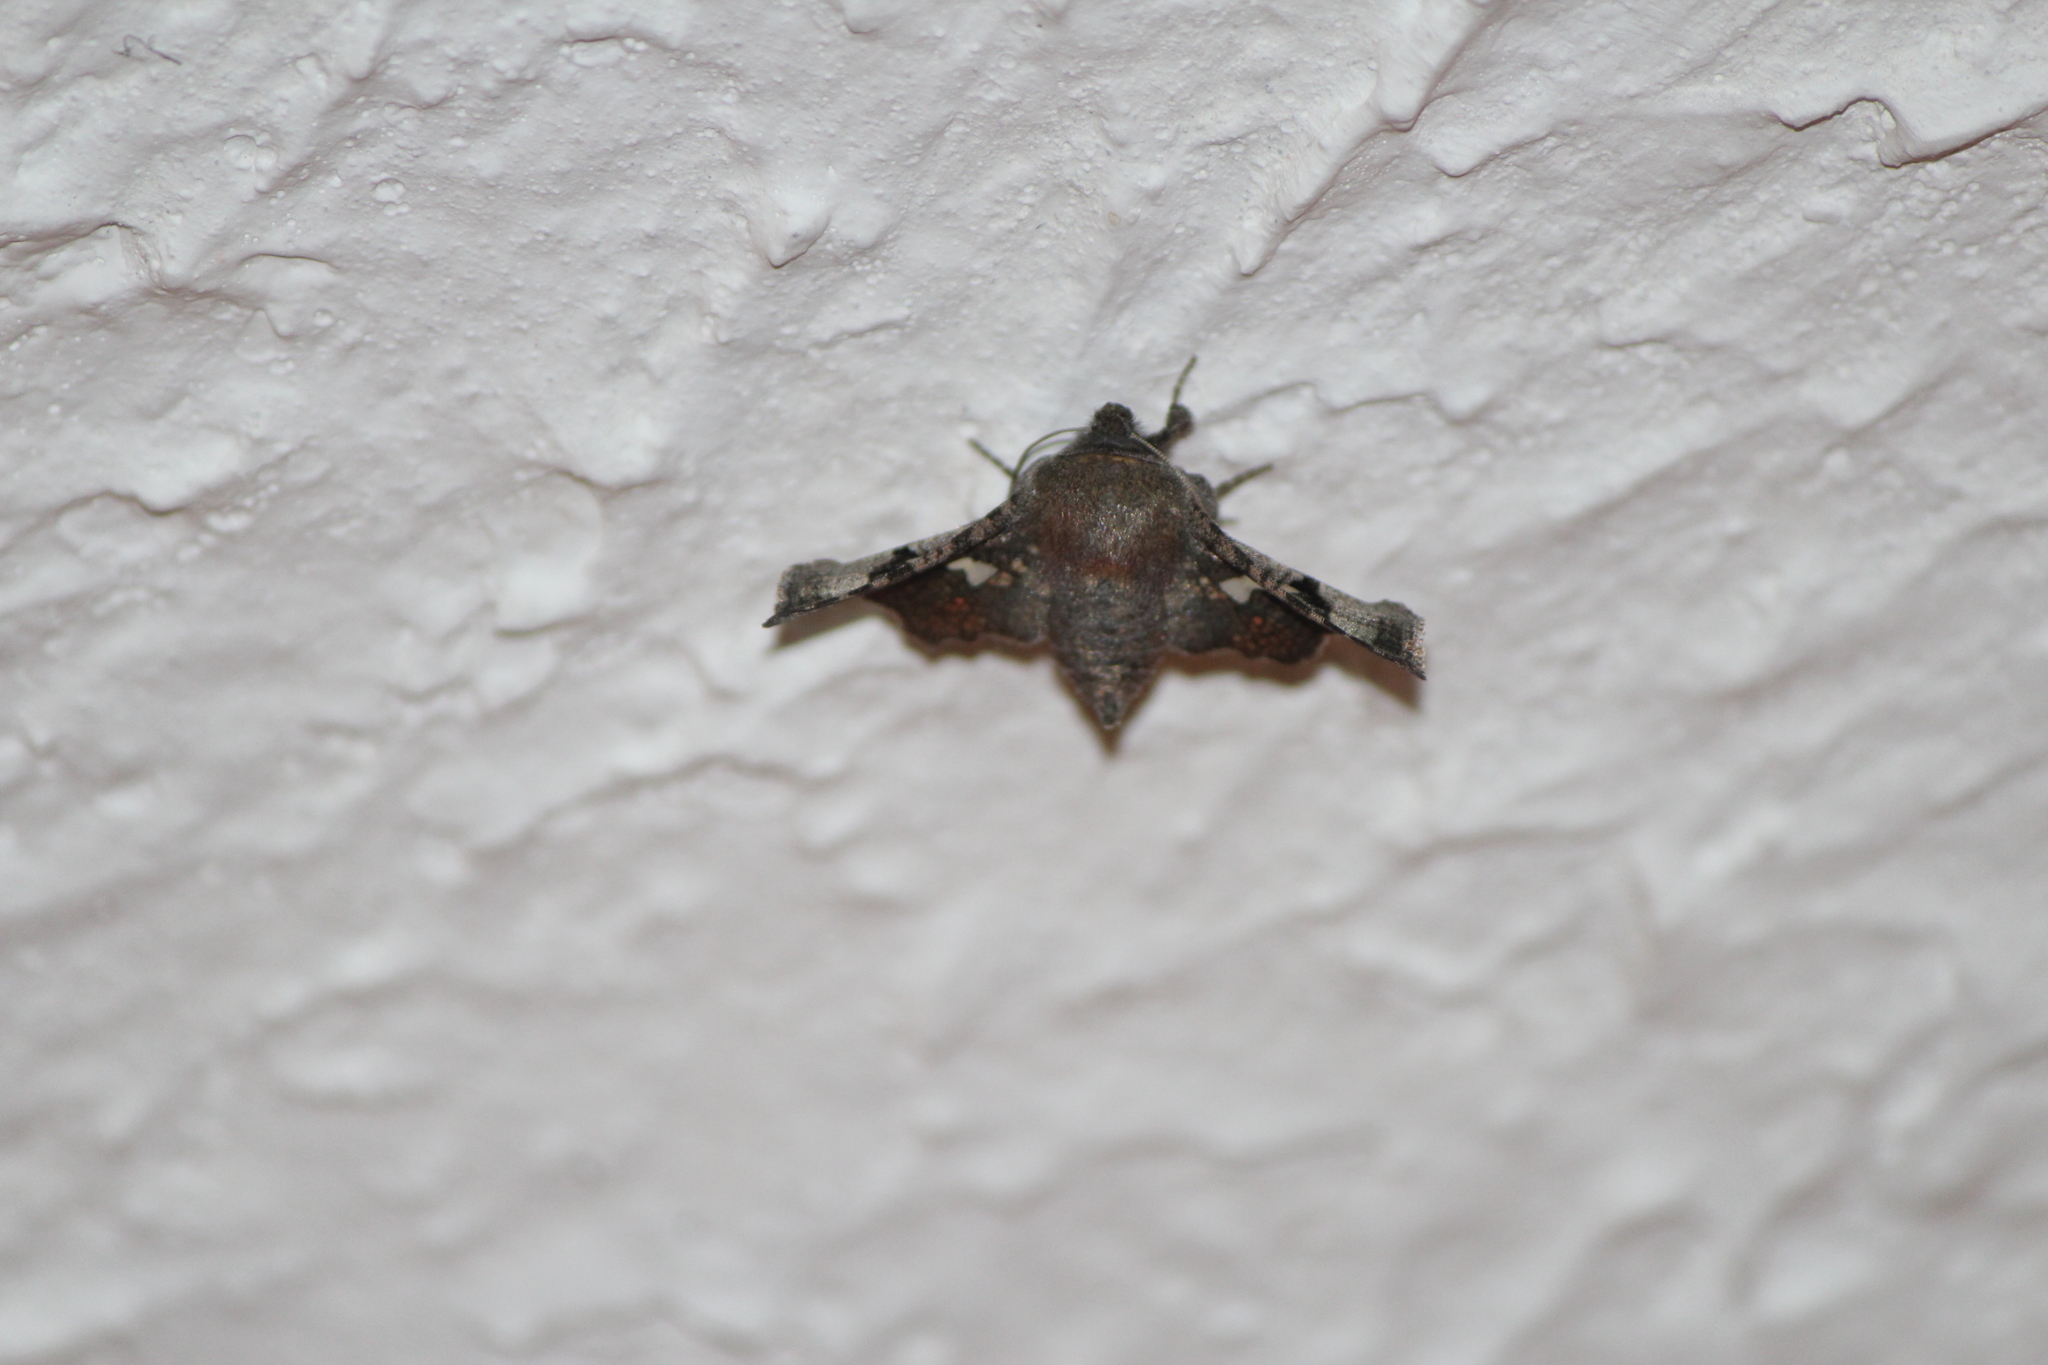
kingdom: Animalia
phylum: Arthropoda
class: Insecta
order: Lepidoptera
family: Thyrididae
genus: Dysodia
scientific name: Dysodia oculatana
